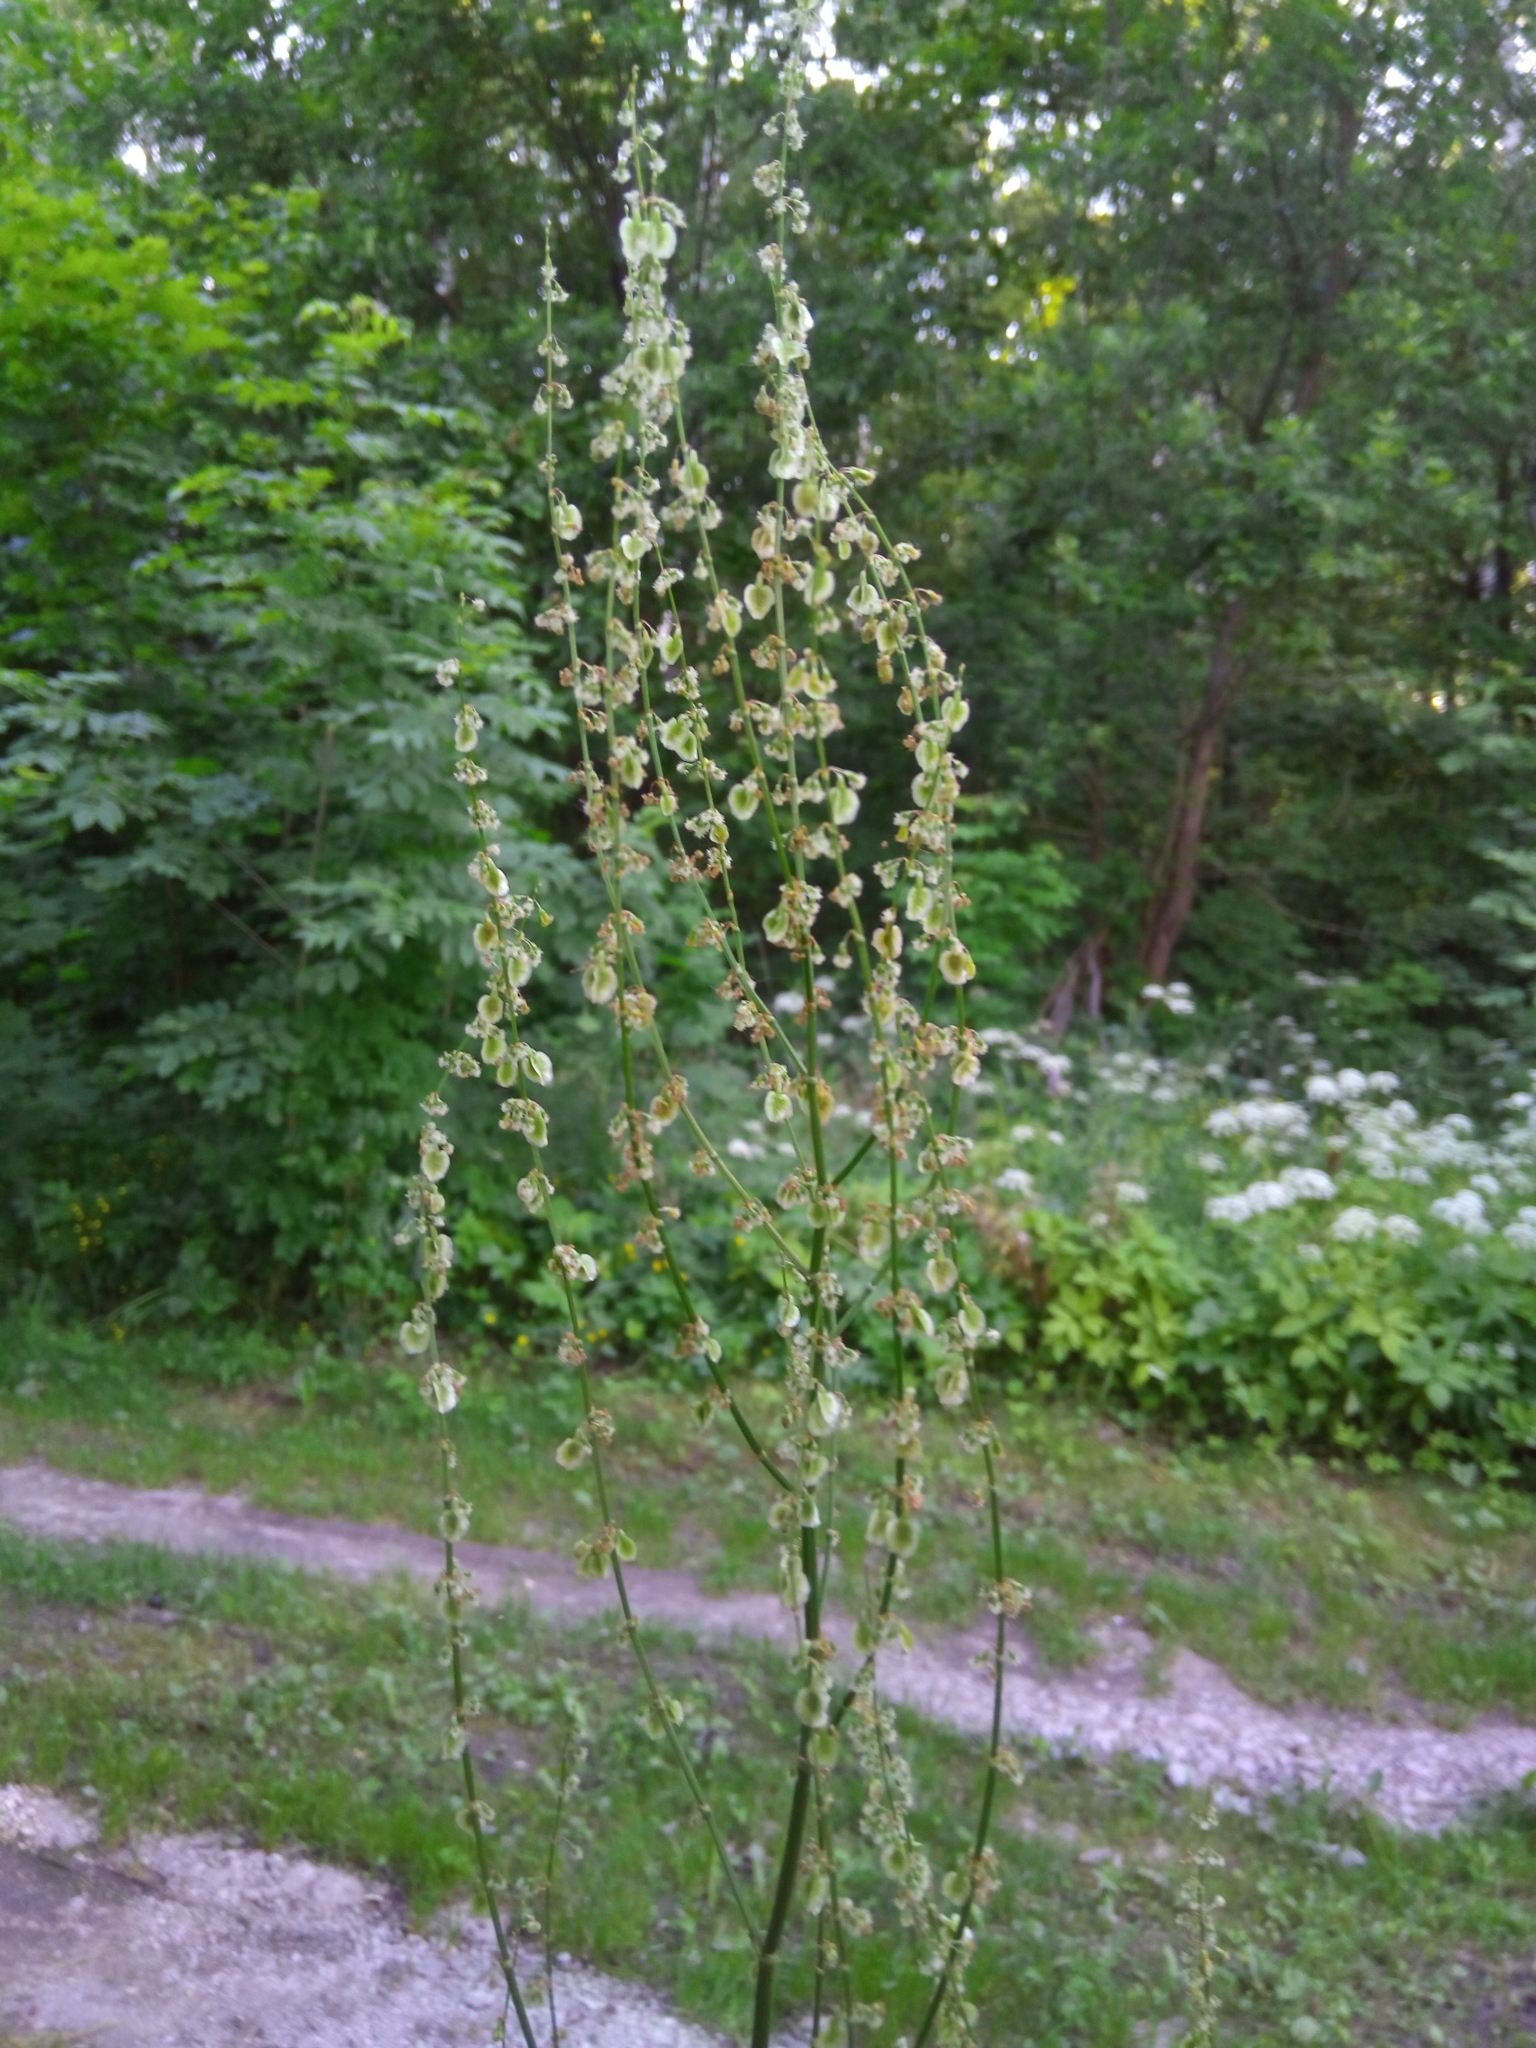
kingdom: Plantae
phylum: Tracheophyta
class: Magnoliopsida
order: Caryophyllales
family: Polygonaceae
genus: Rumex
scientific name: Rumex acetosa
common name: Garden sorrel
